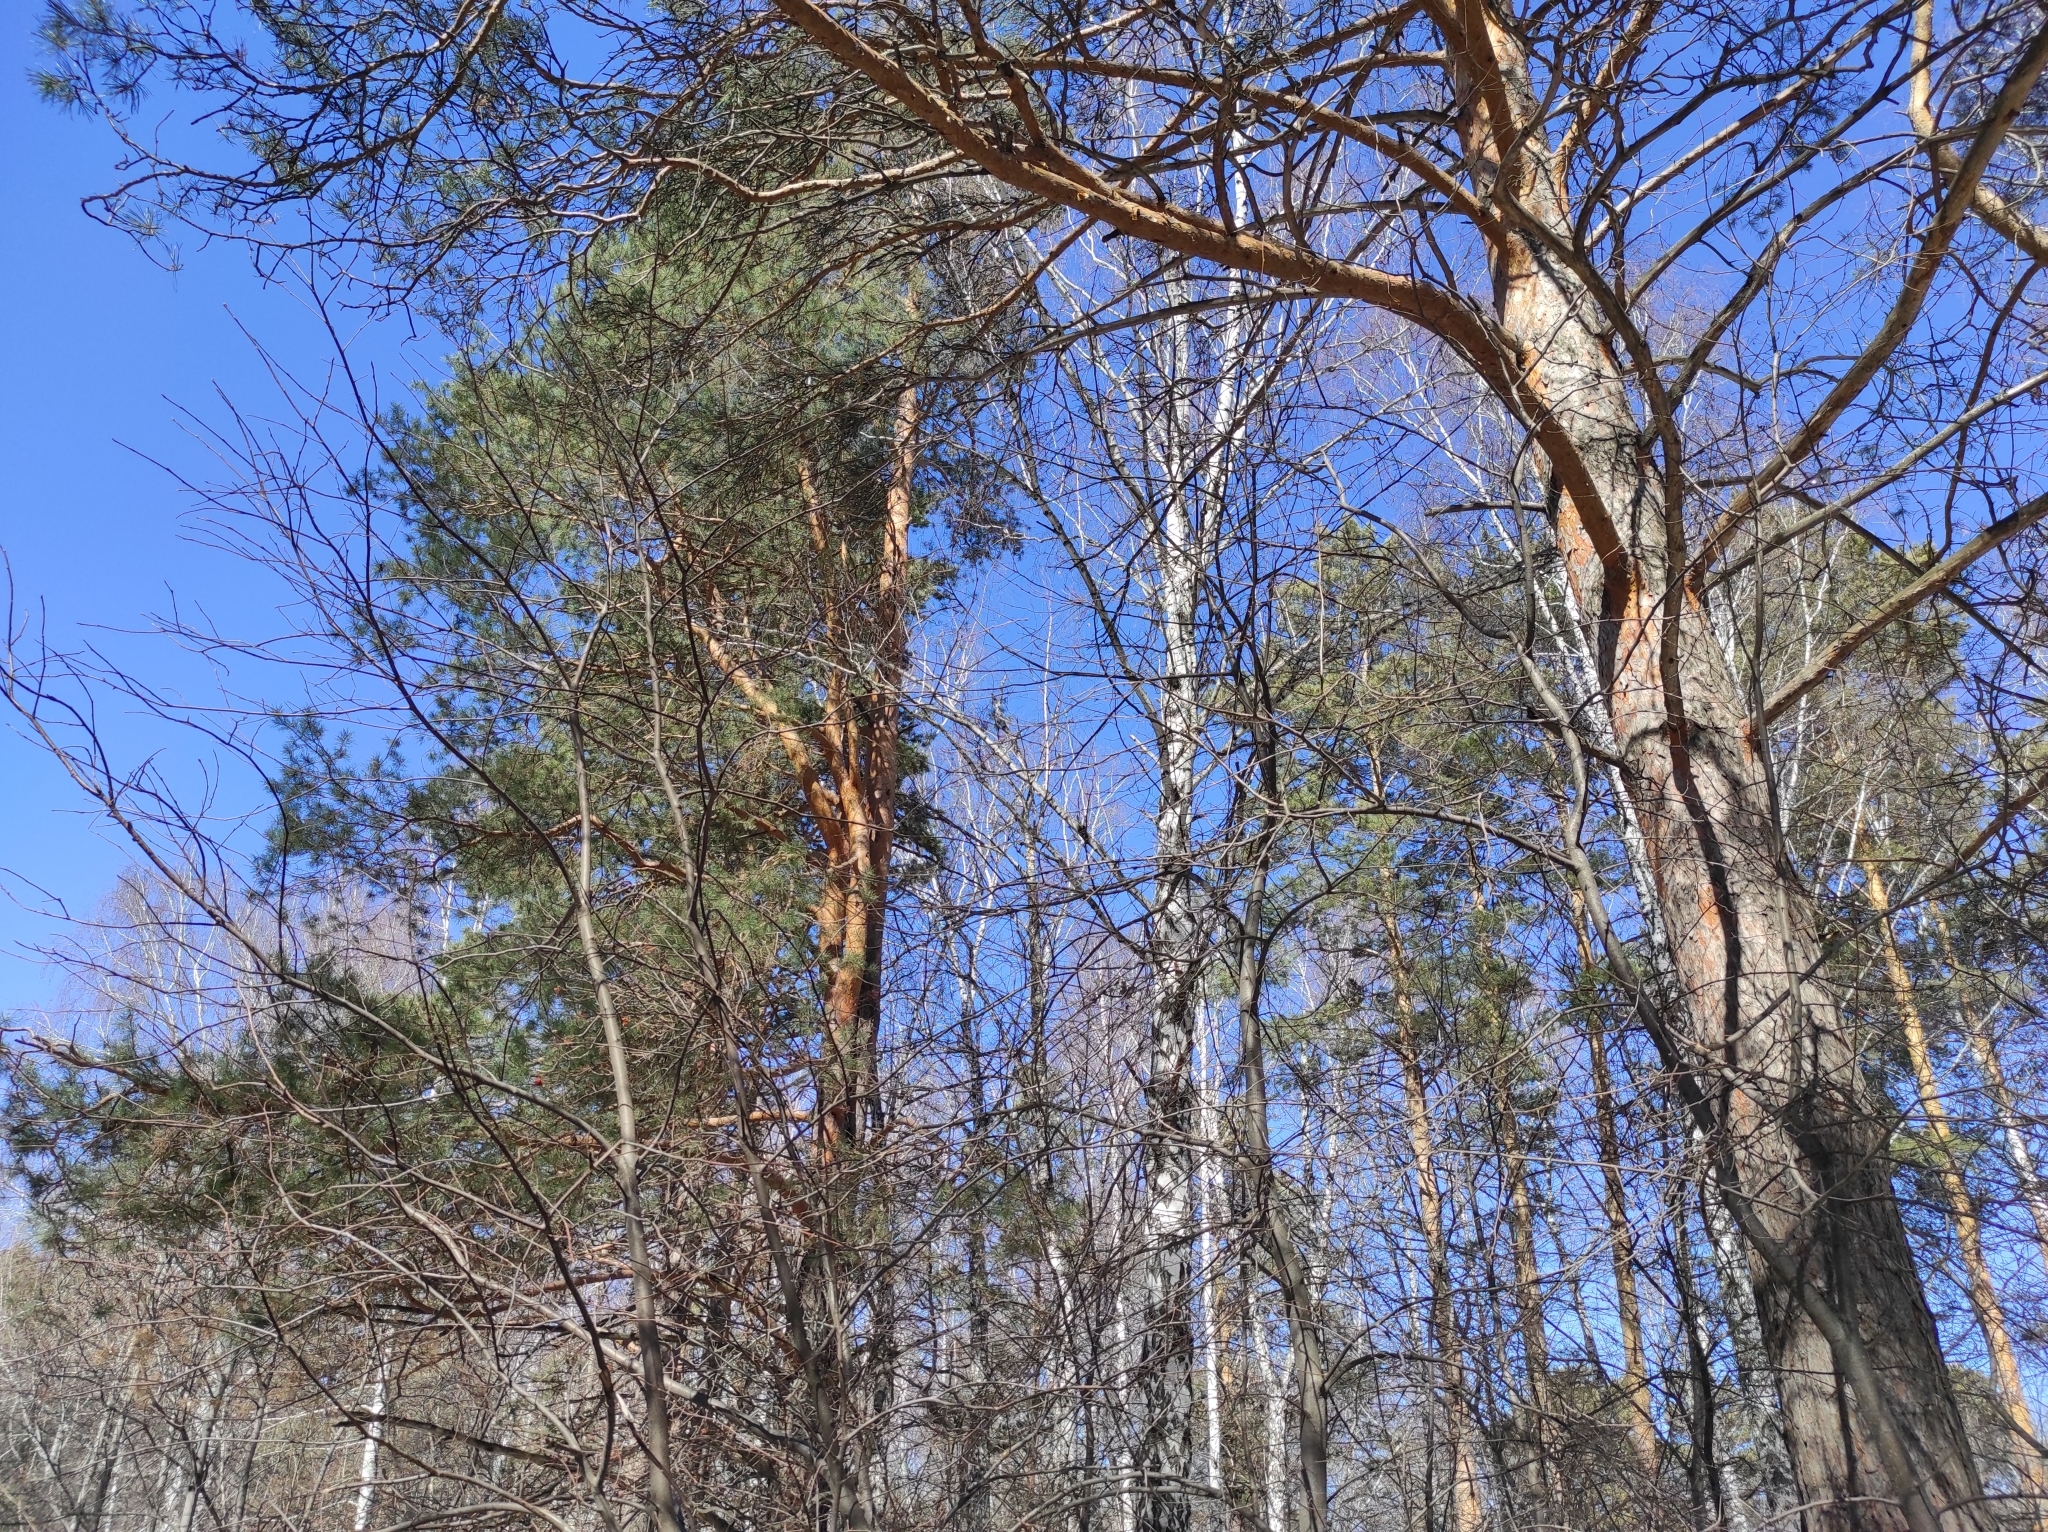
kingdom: Plantae
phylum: Tracheophyta
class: Pinopsida
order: Pinales
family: Pinaceae
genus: Pinus
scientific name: Pinus sylvestris
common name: Scots pine
